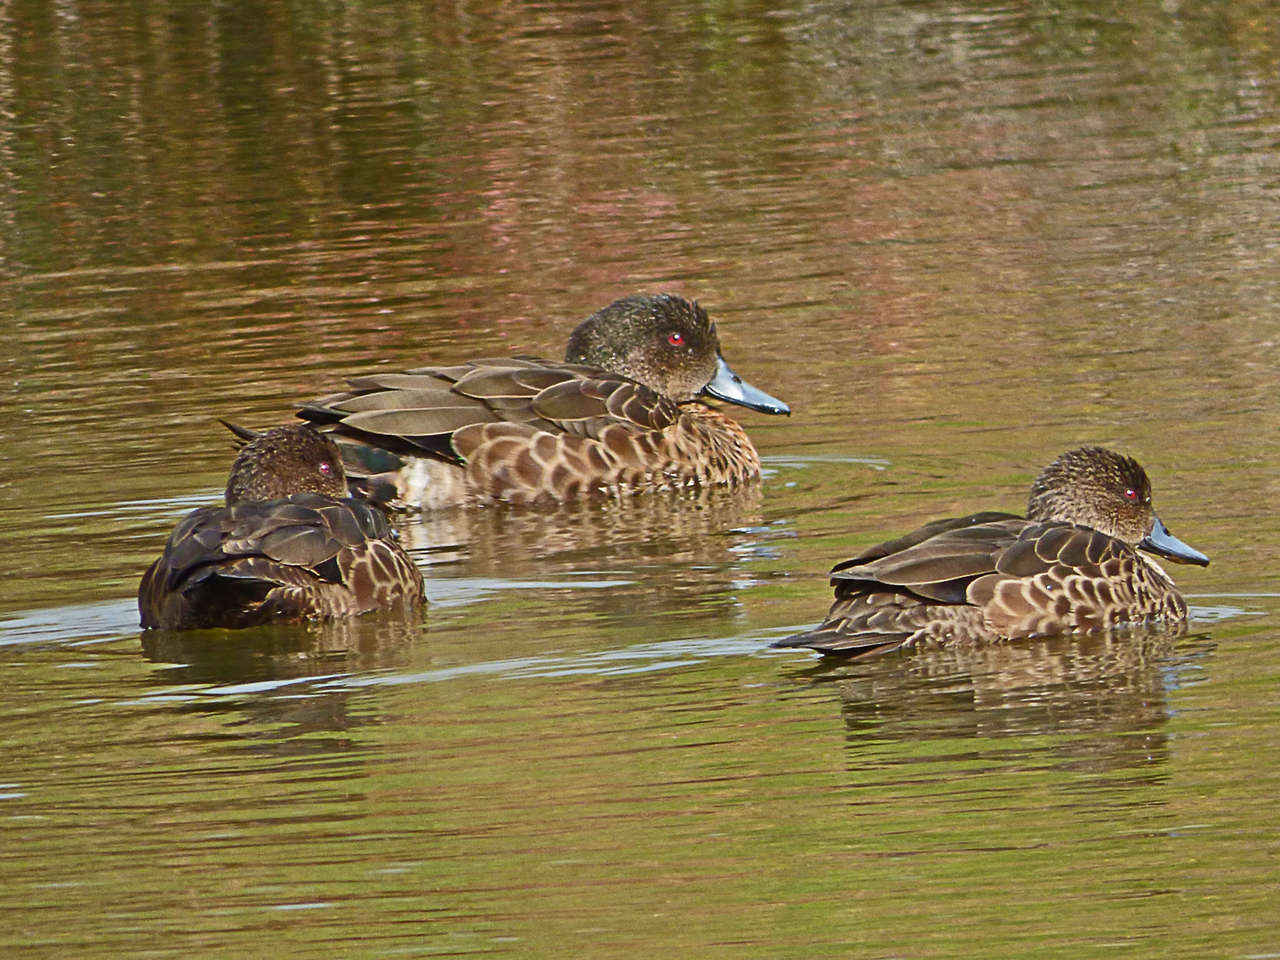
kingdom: Animalia
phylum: Chordata
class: Aves
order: Anseriformes
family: Anatidae
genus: Anas
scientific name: Anas castanea
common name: Chestnut teal
